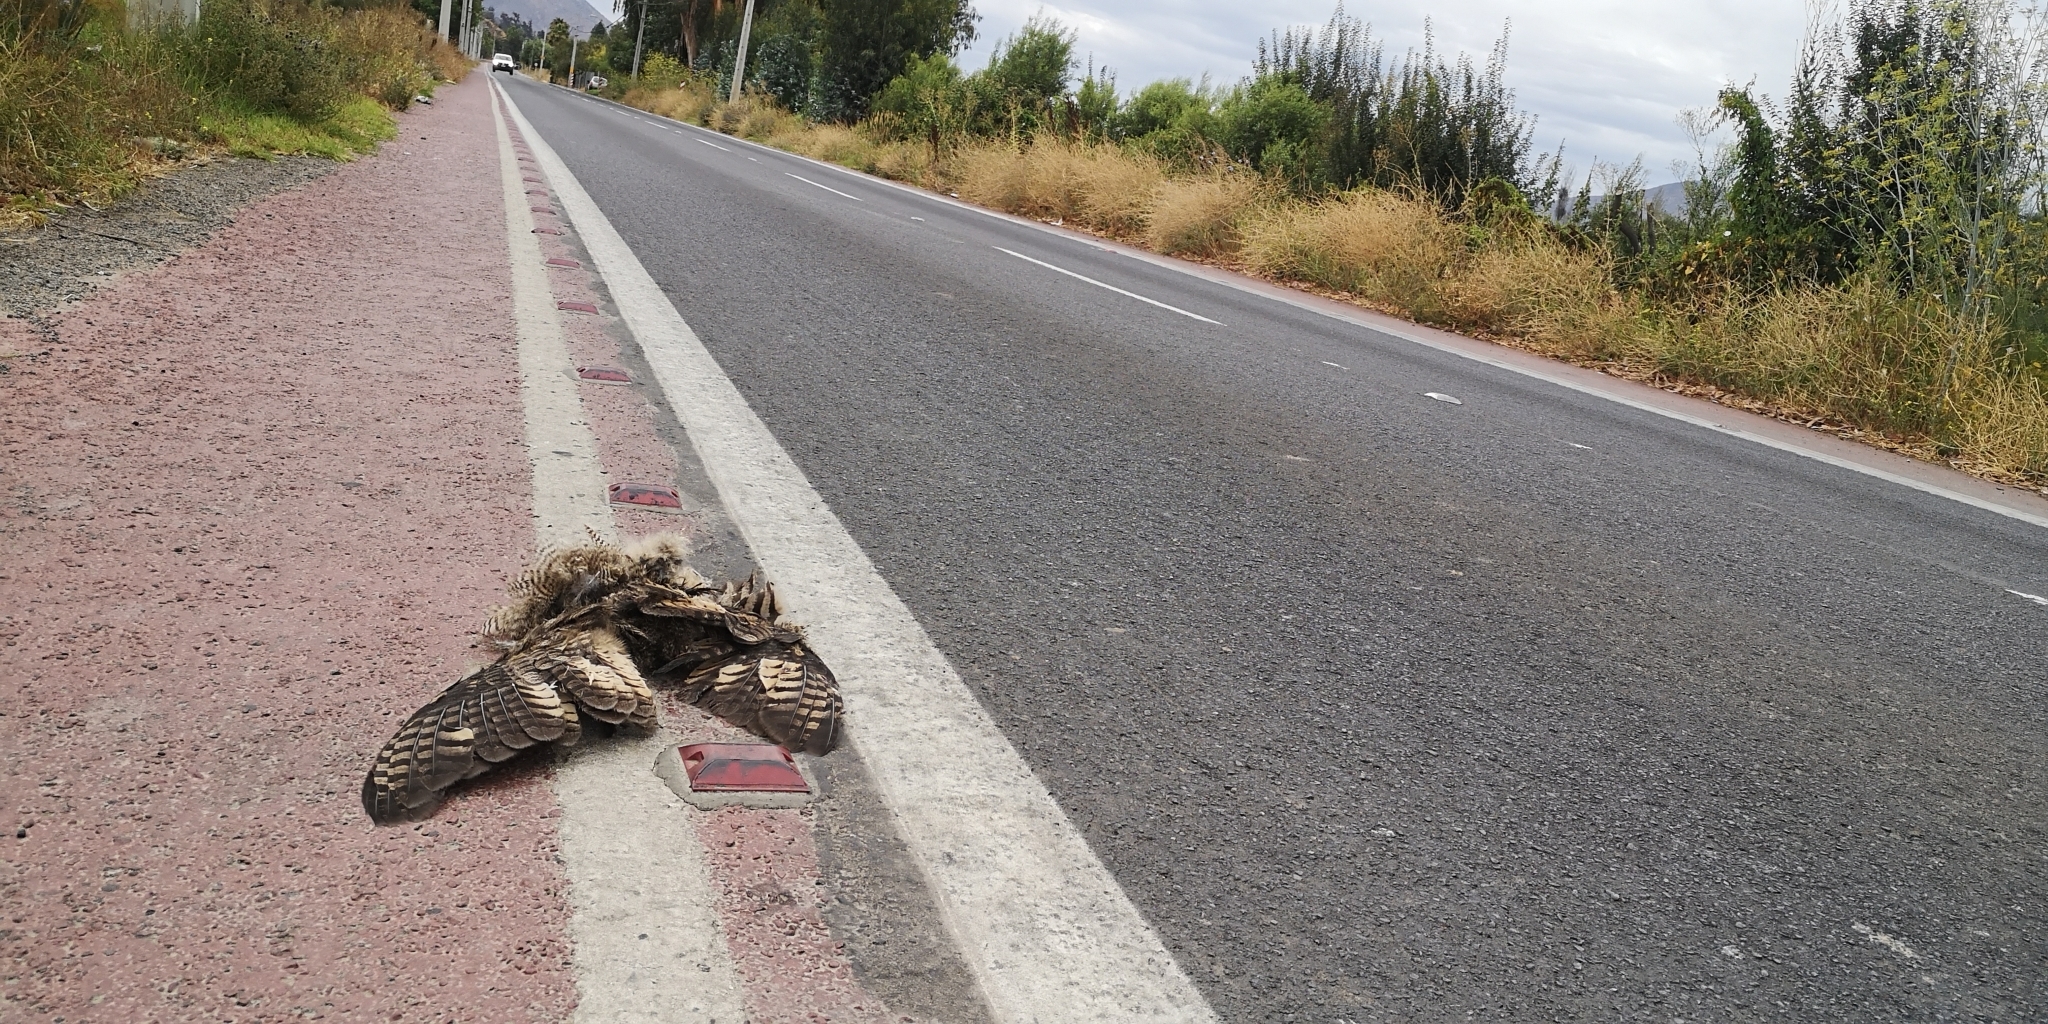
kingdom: Animalia
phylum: Chordata
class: Aves
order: Strigiformes
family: Strigidae
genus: Bubo
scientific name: Bubo magellanicus
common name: Lesser horned owl
